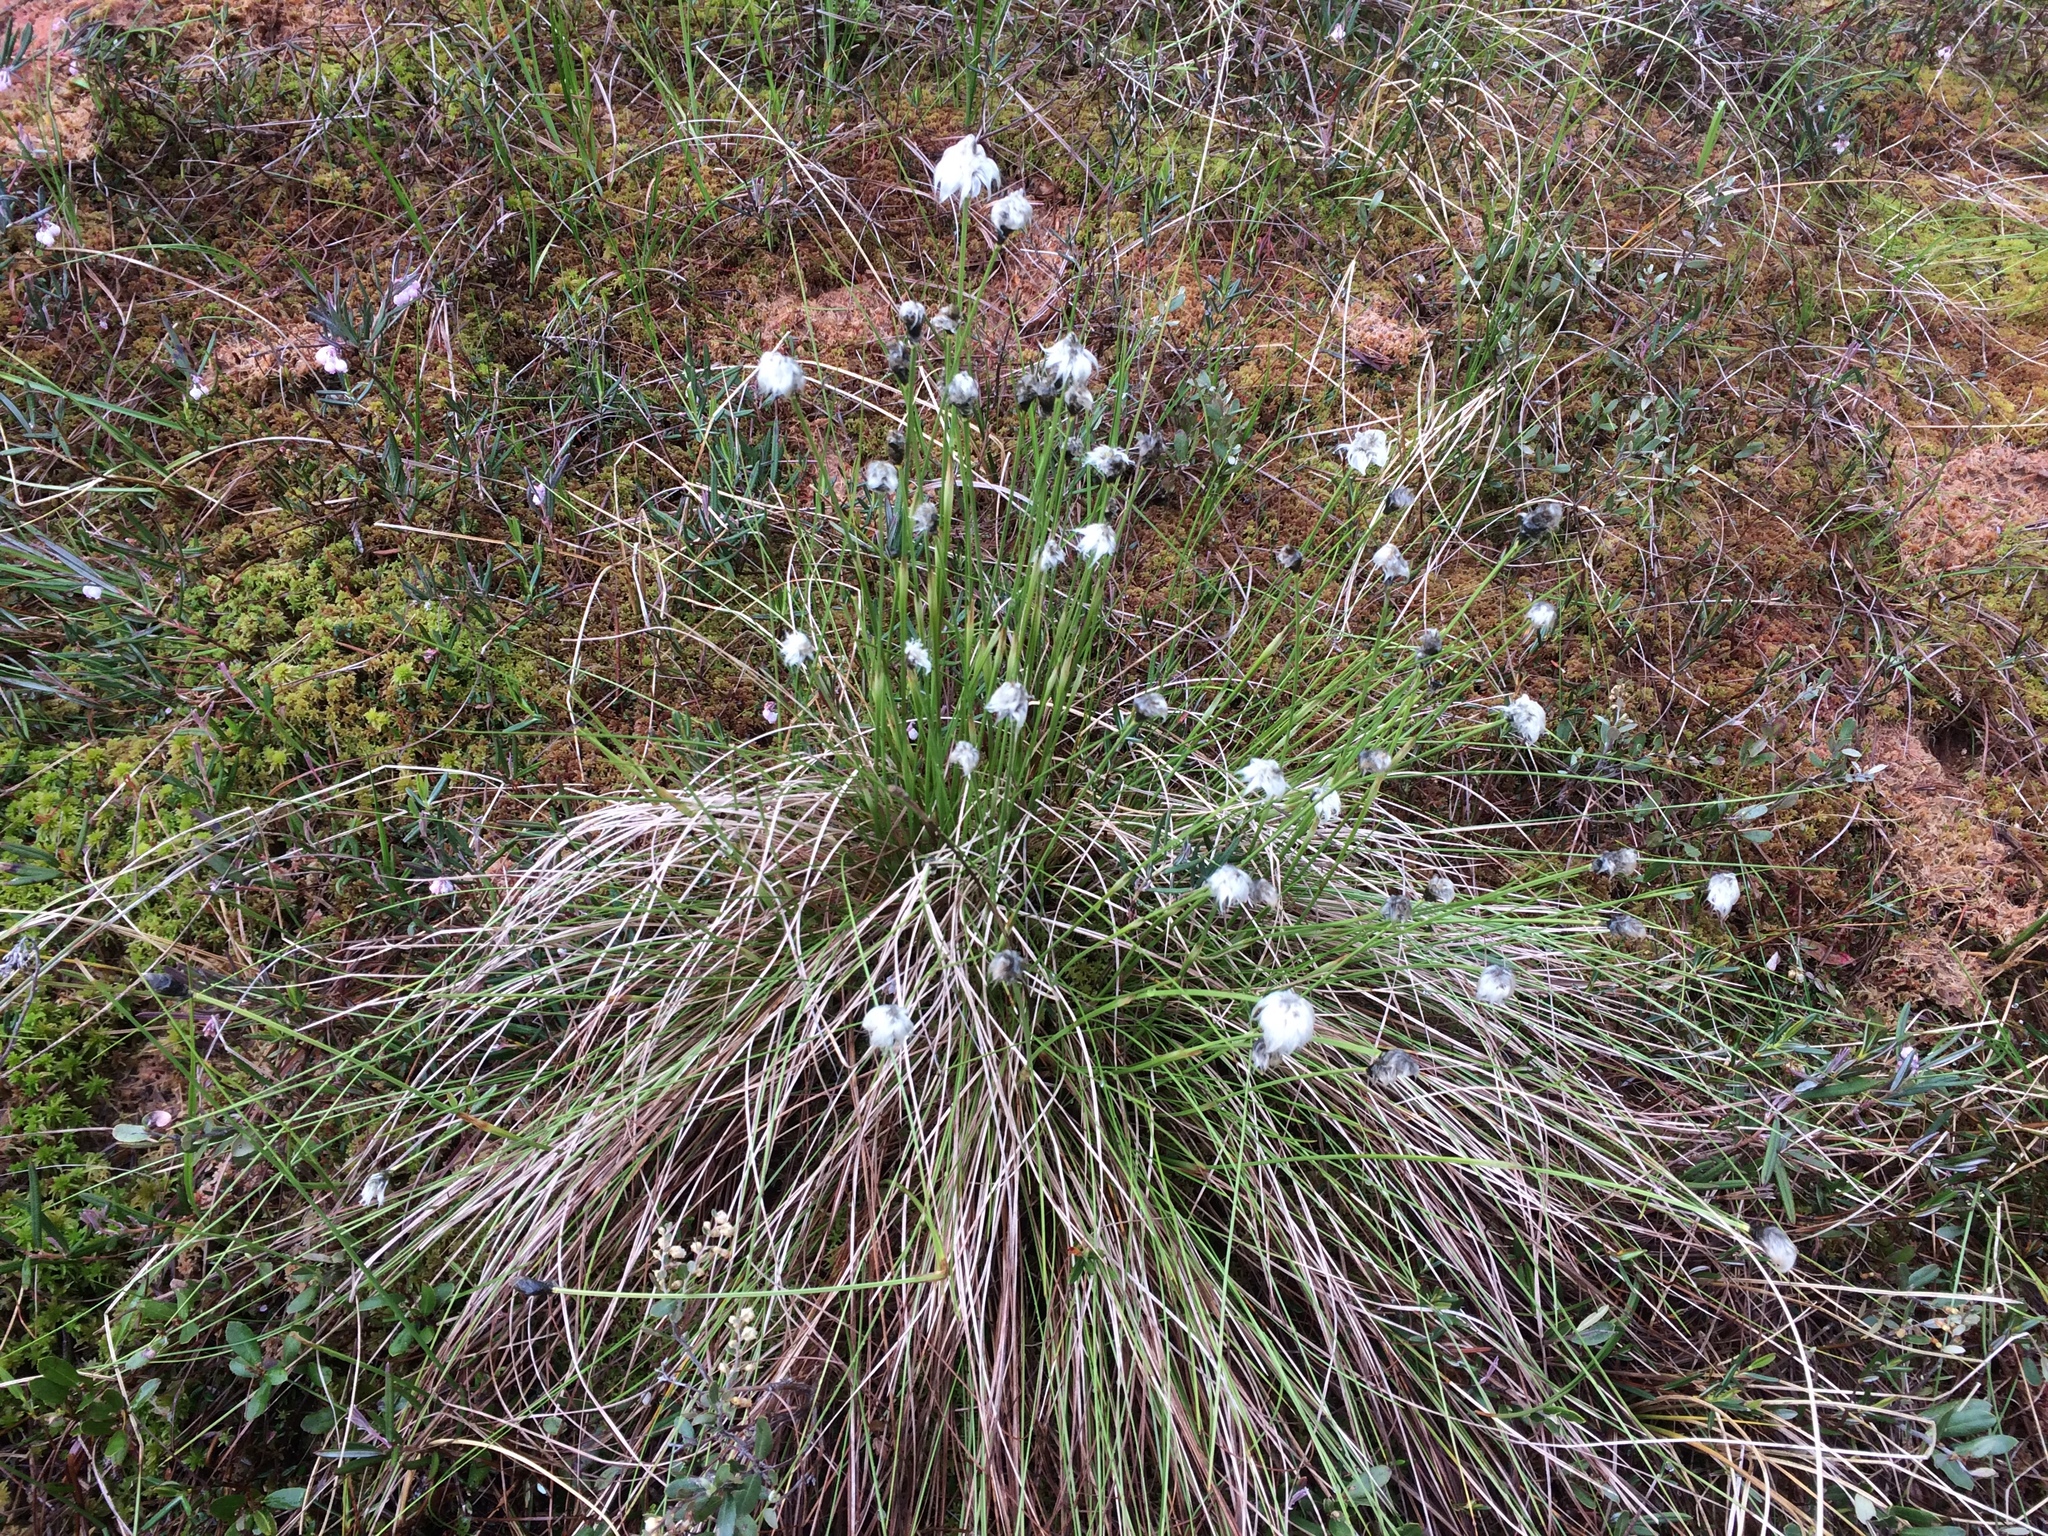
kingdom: Plantae
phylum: Tracheophyta
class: Liliopsida
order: Poales
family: Cyperaceae
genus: Eriophorum
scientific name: Eriophorum vaginatum
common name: Hare's-tail cottongrass
